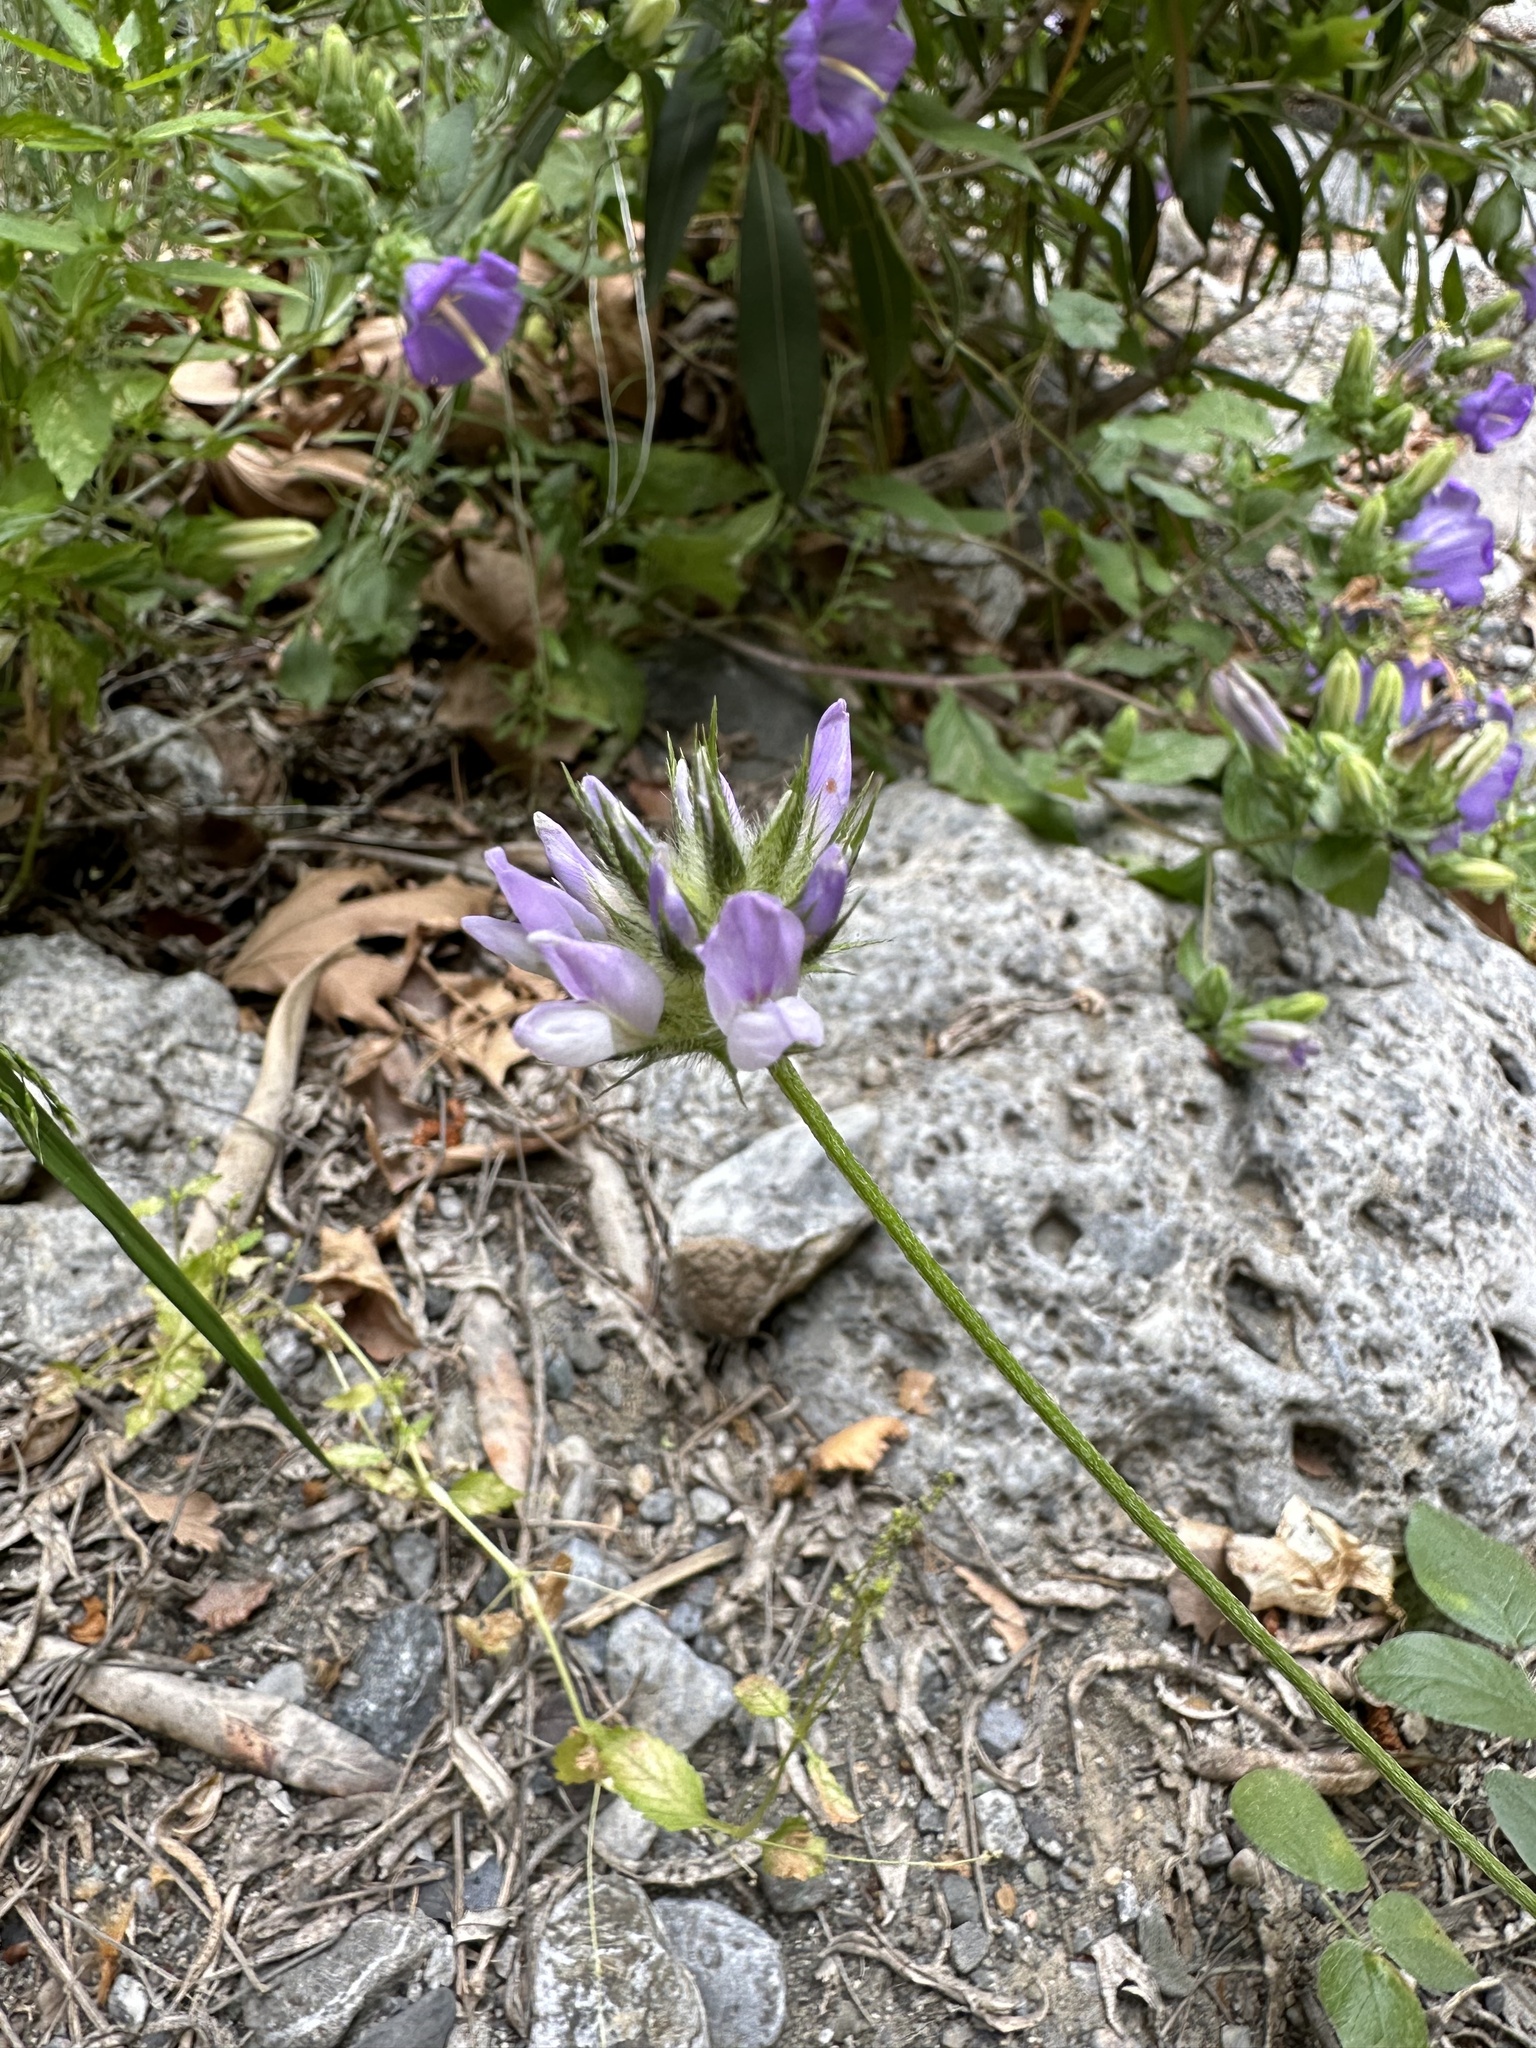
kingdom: Plantae
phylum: Tracheophyta
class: Magnoliopsida
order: Fabales
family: Fabaceae
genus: Bituminaria
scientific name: Bituminaria bituminosa
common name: Arabian pea
